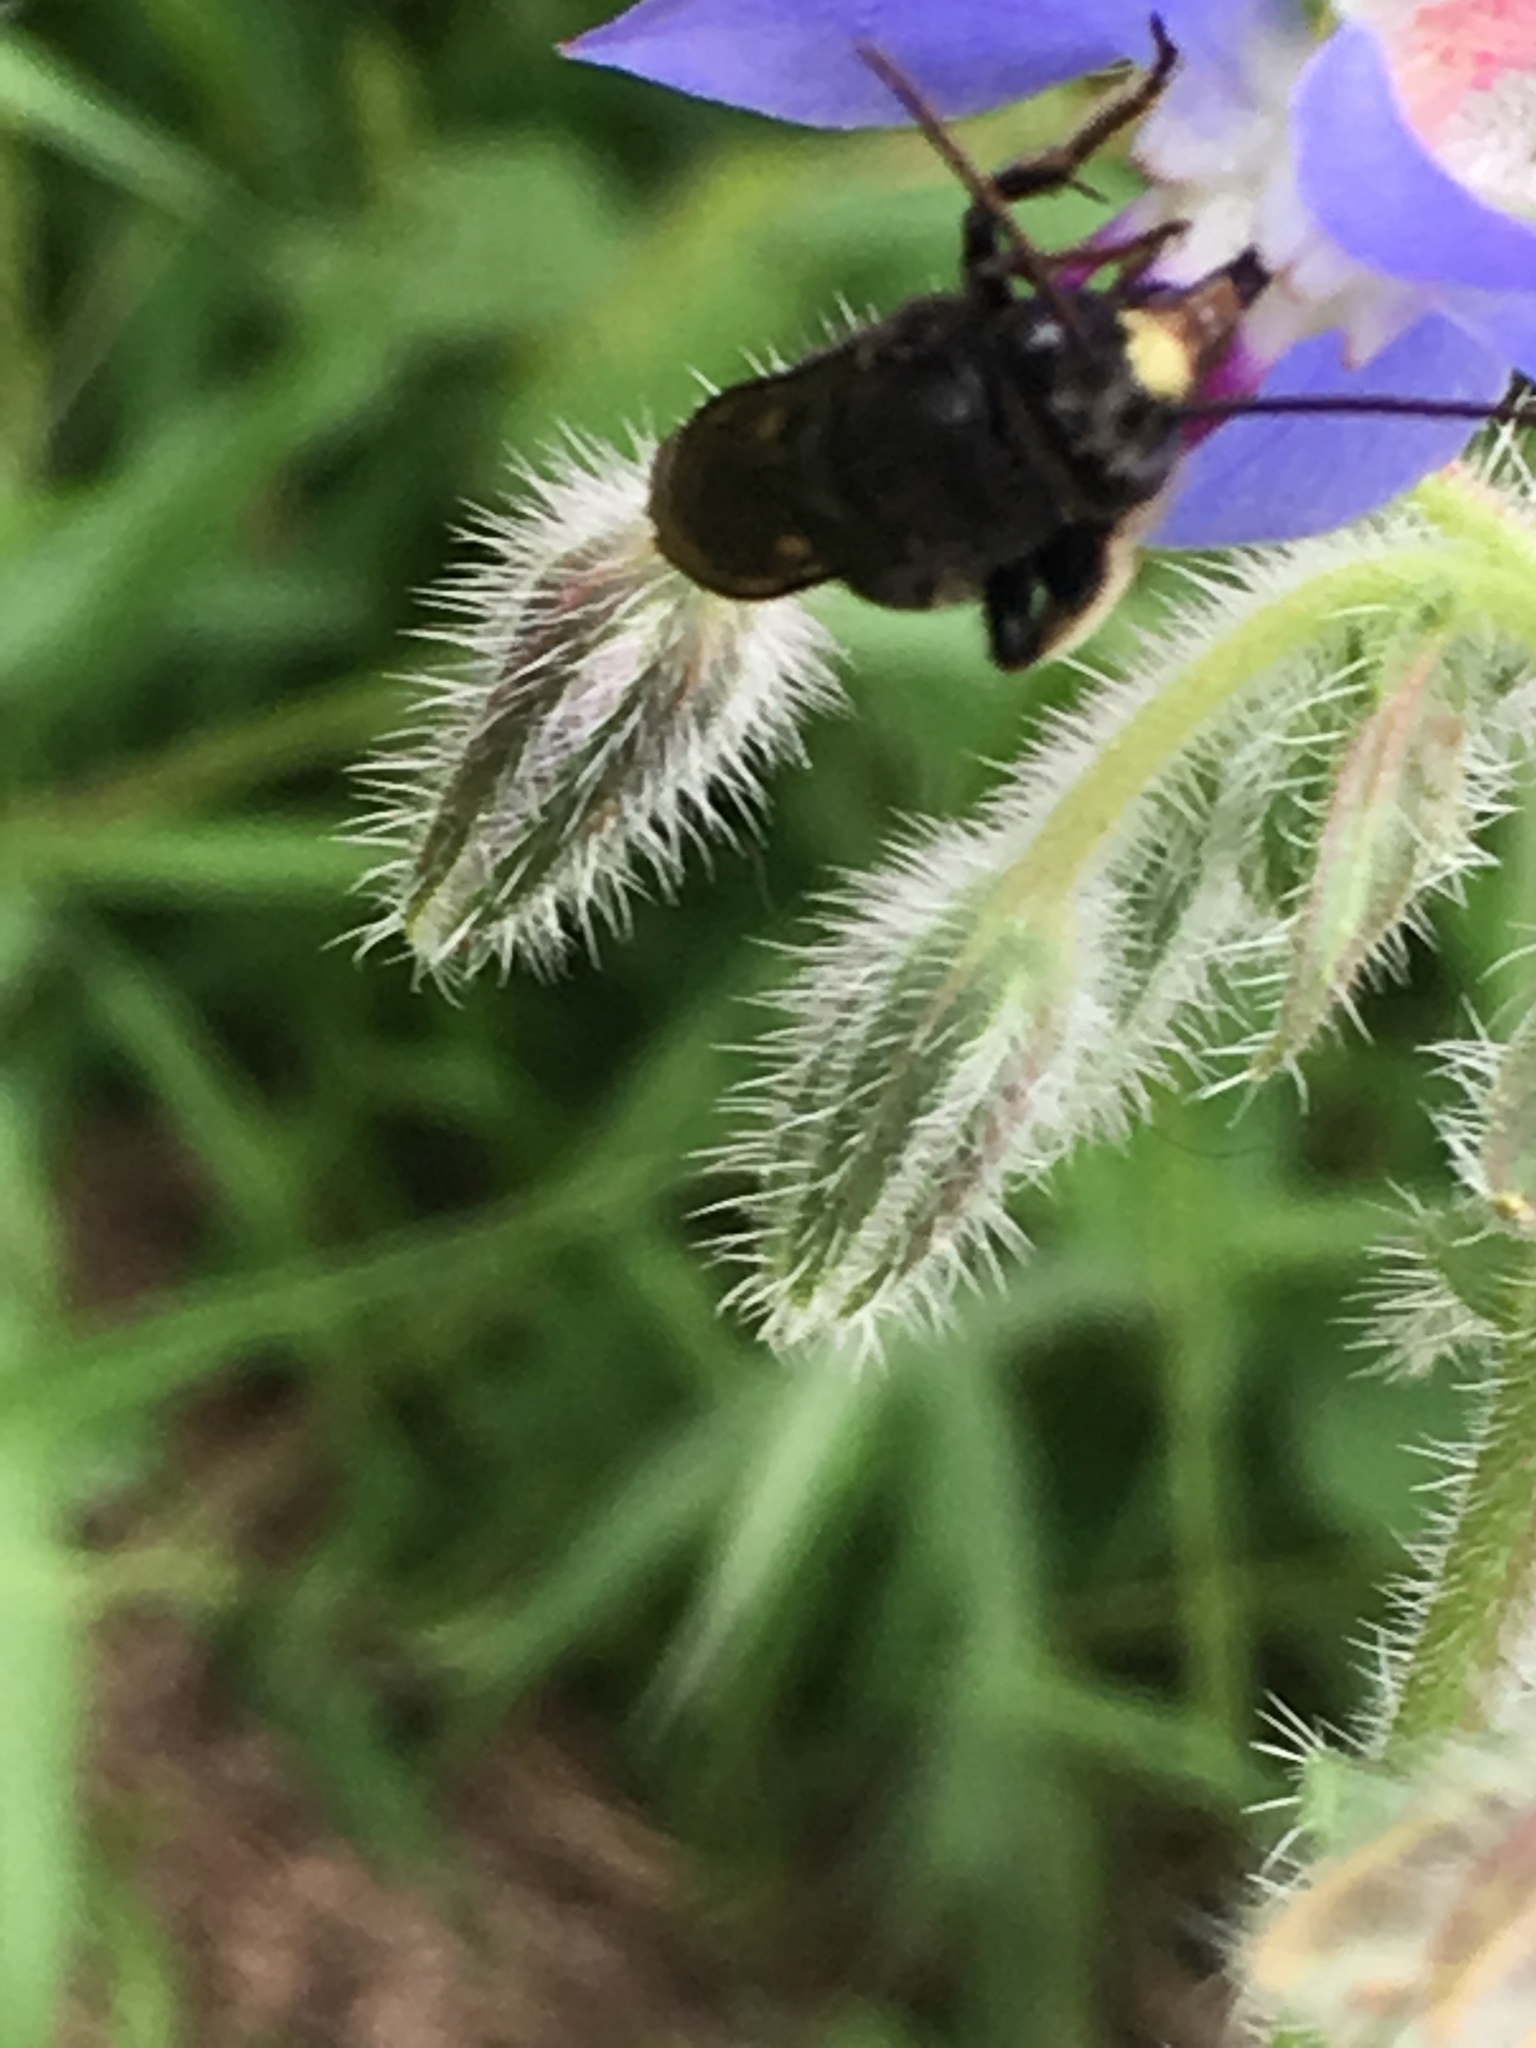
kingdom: Animalia
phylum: Arthropoda
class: Insecta
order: Hymenoptera
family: Apidae
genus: Melissodes
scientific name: Melissodes bimaculatus
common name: Two-spotted long-horned bee
